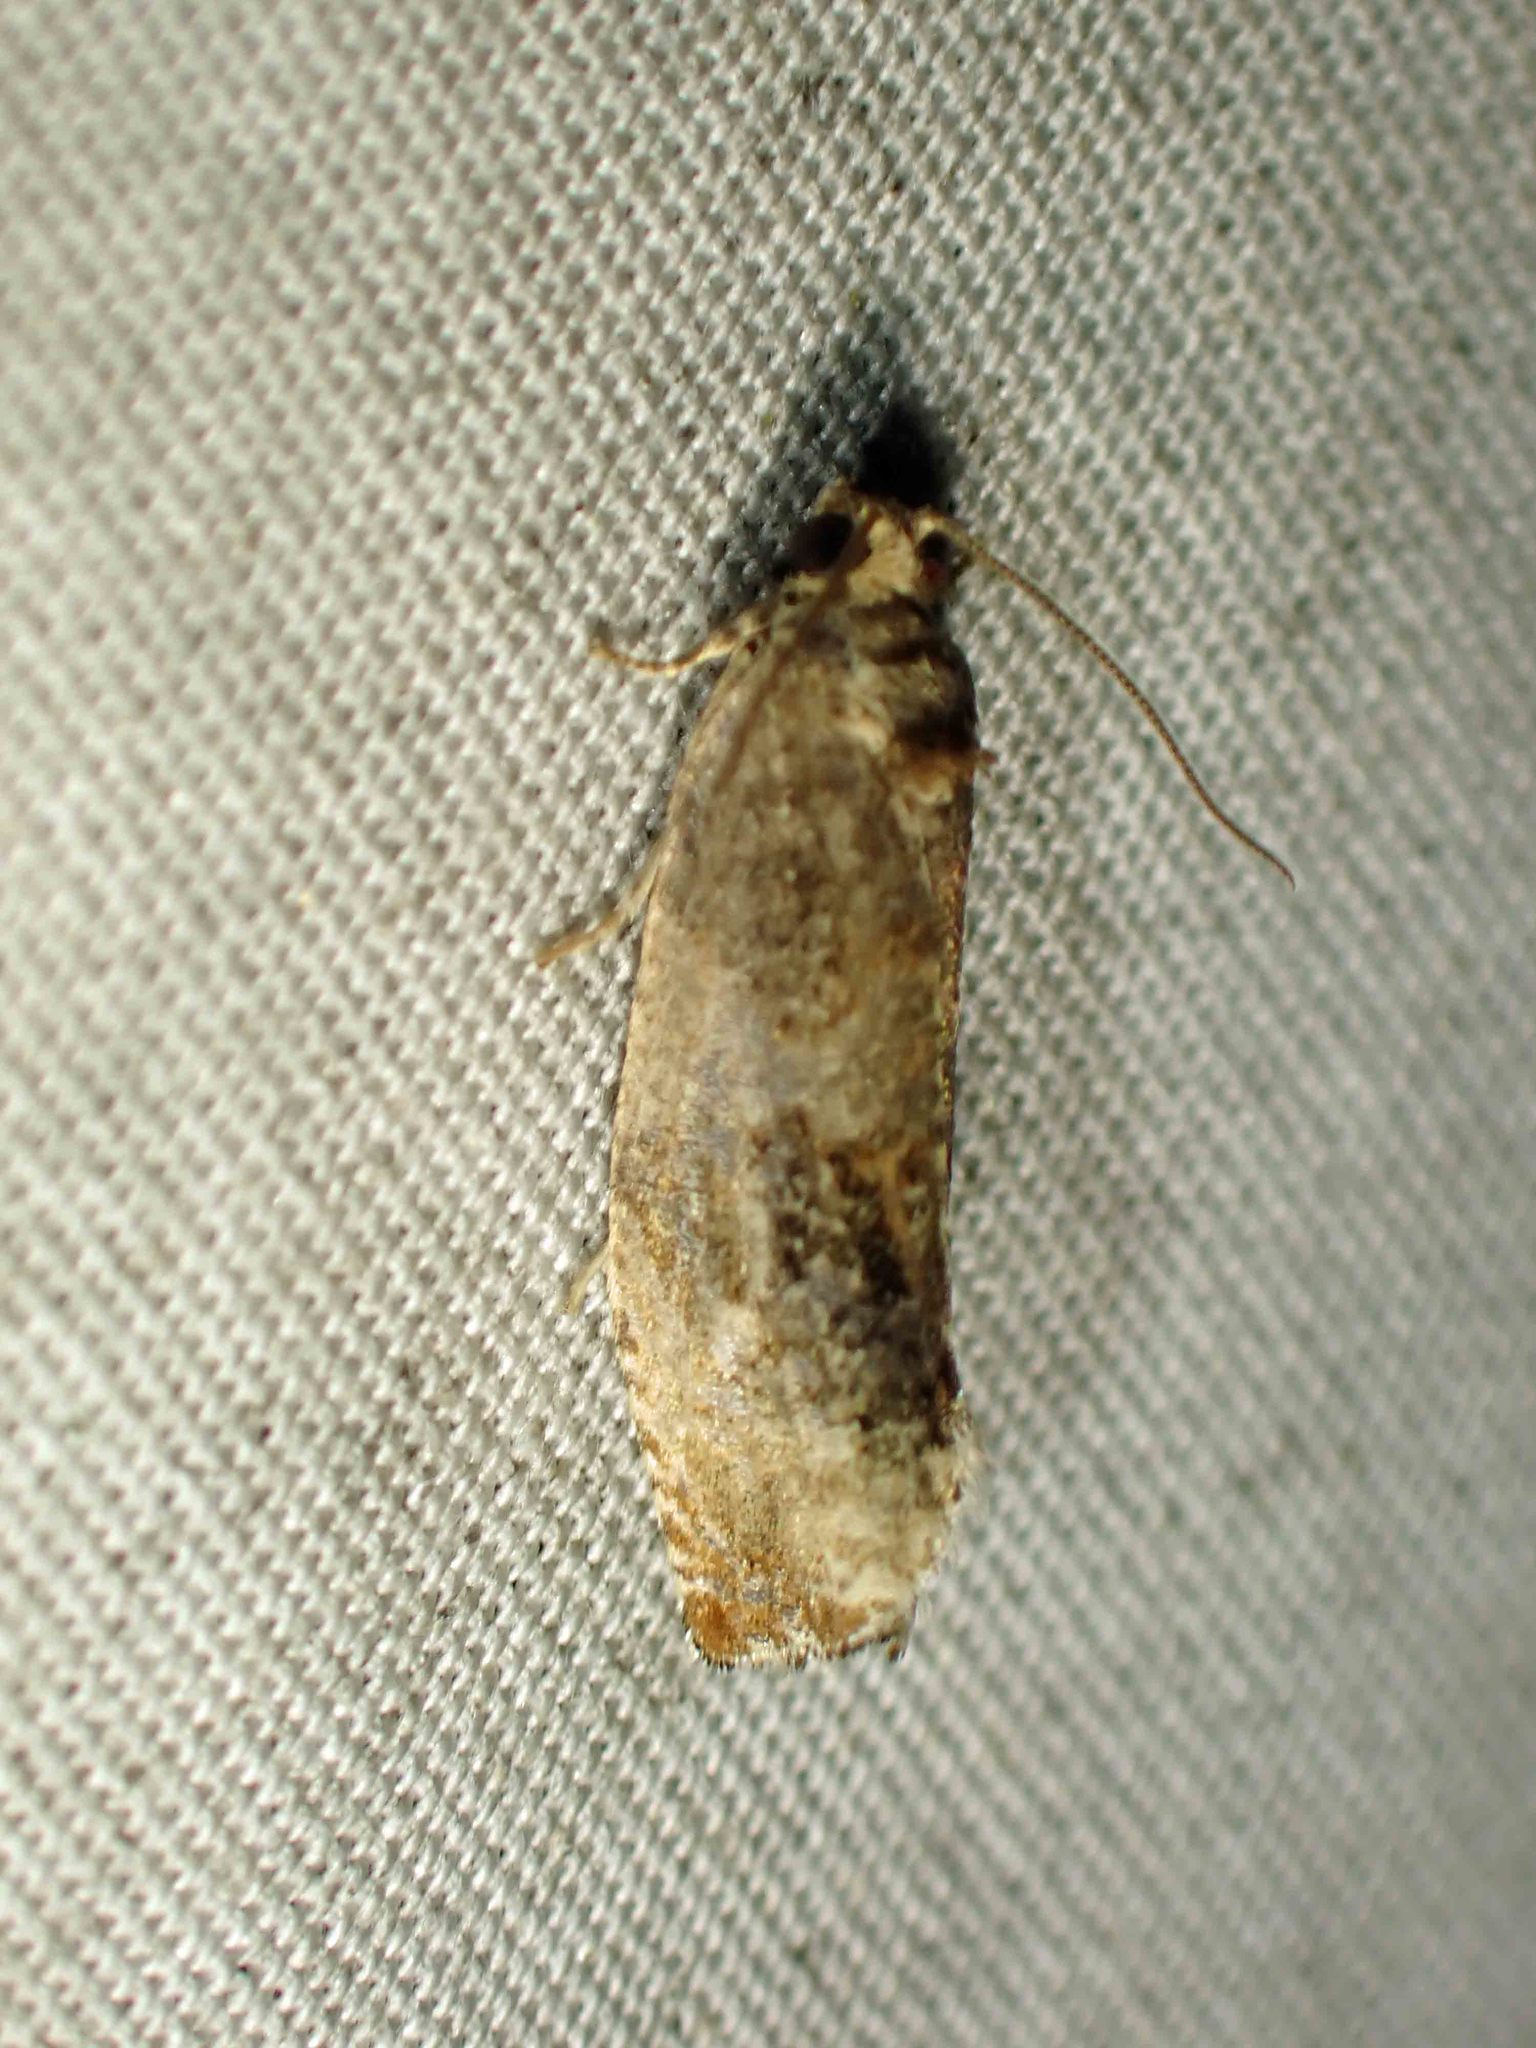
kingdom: Animalia
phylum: Arthropoda
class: Insecta
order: Lepidoptera
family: Tortricidae
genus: Pseudosciaphila
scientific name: Pseudosciaphila duplex
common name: Poplar leafroller moth
